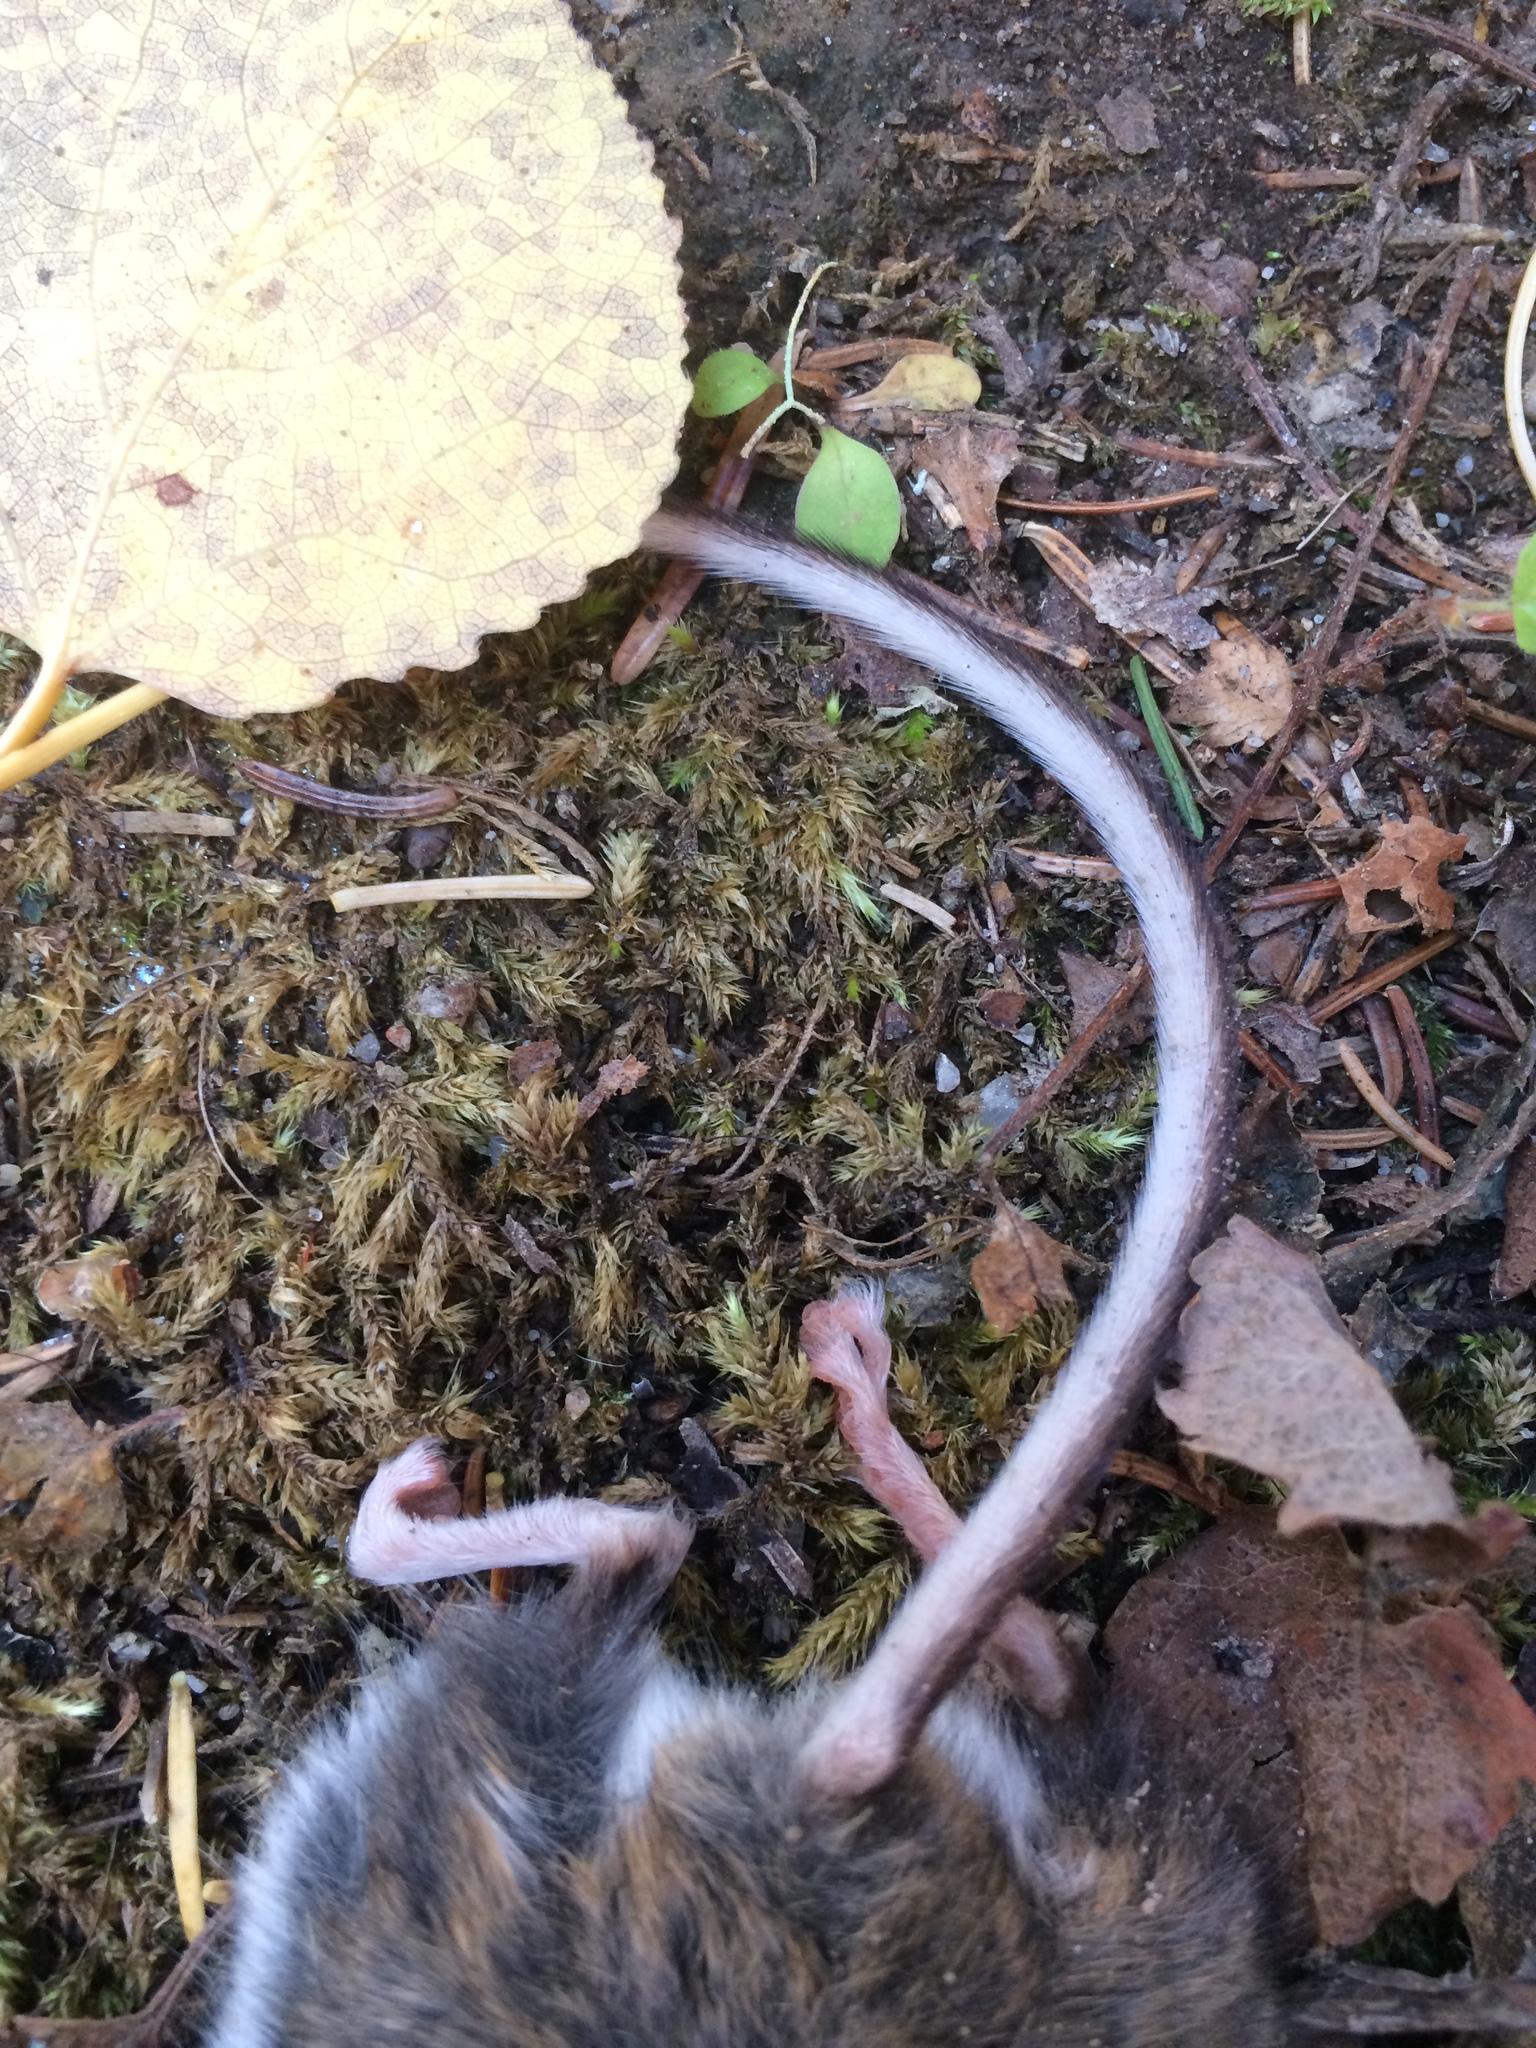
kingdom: Animalia
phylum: Chordata
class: Mammalia
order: Rodentia
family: Cricetidae
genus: Peromyscus
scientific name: Peromyscus maniculatus
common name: Deer mouse
